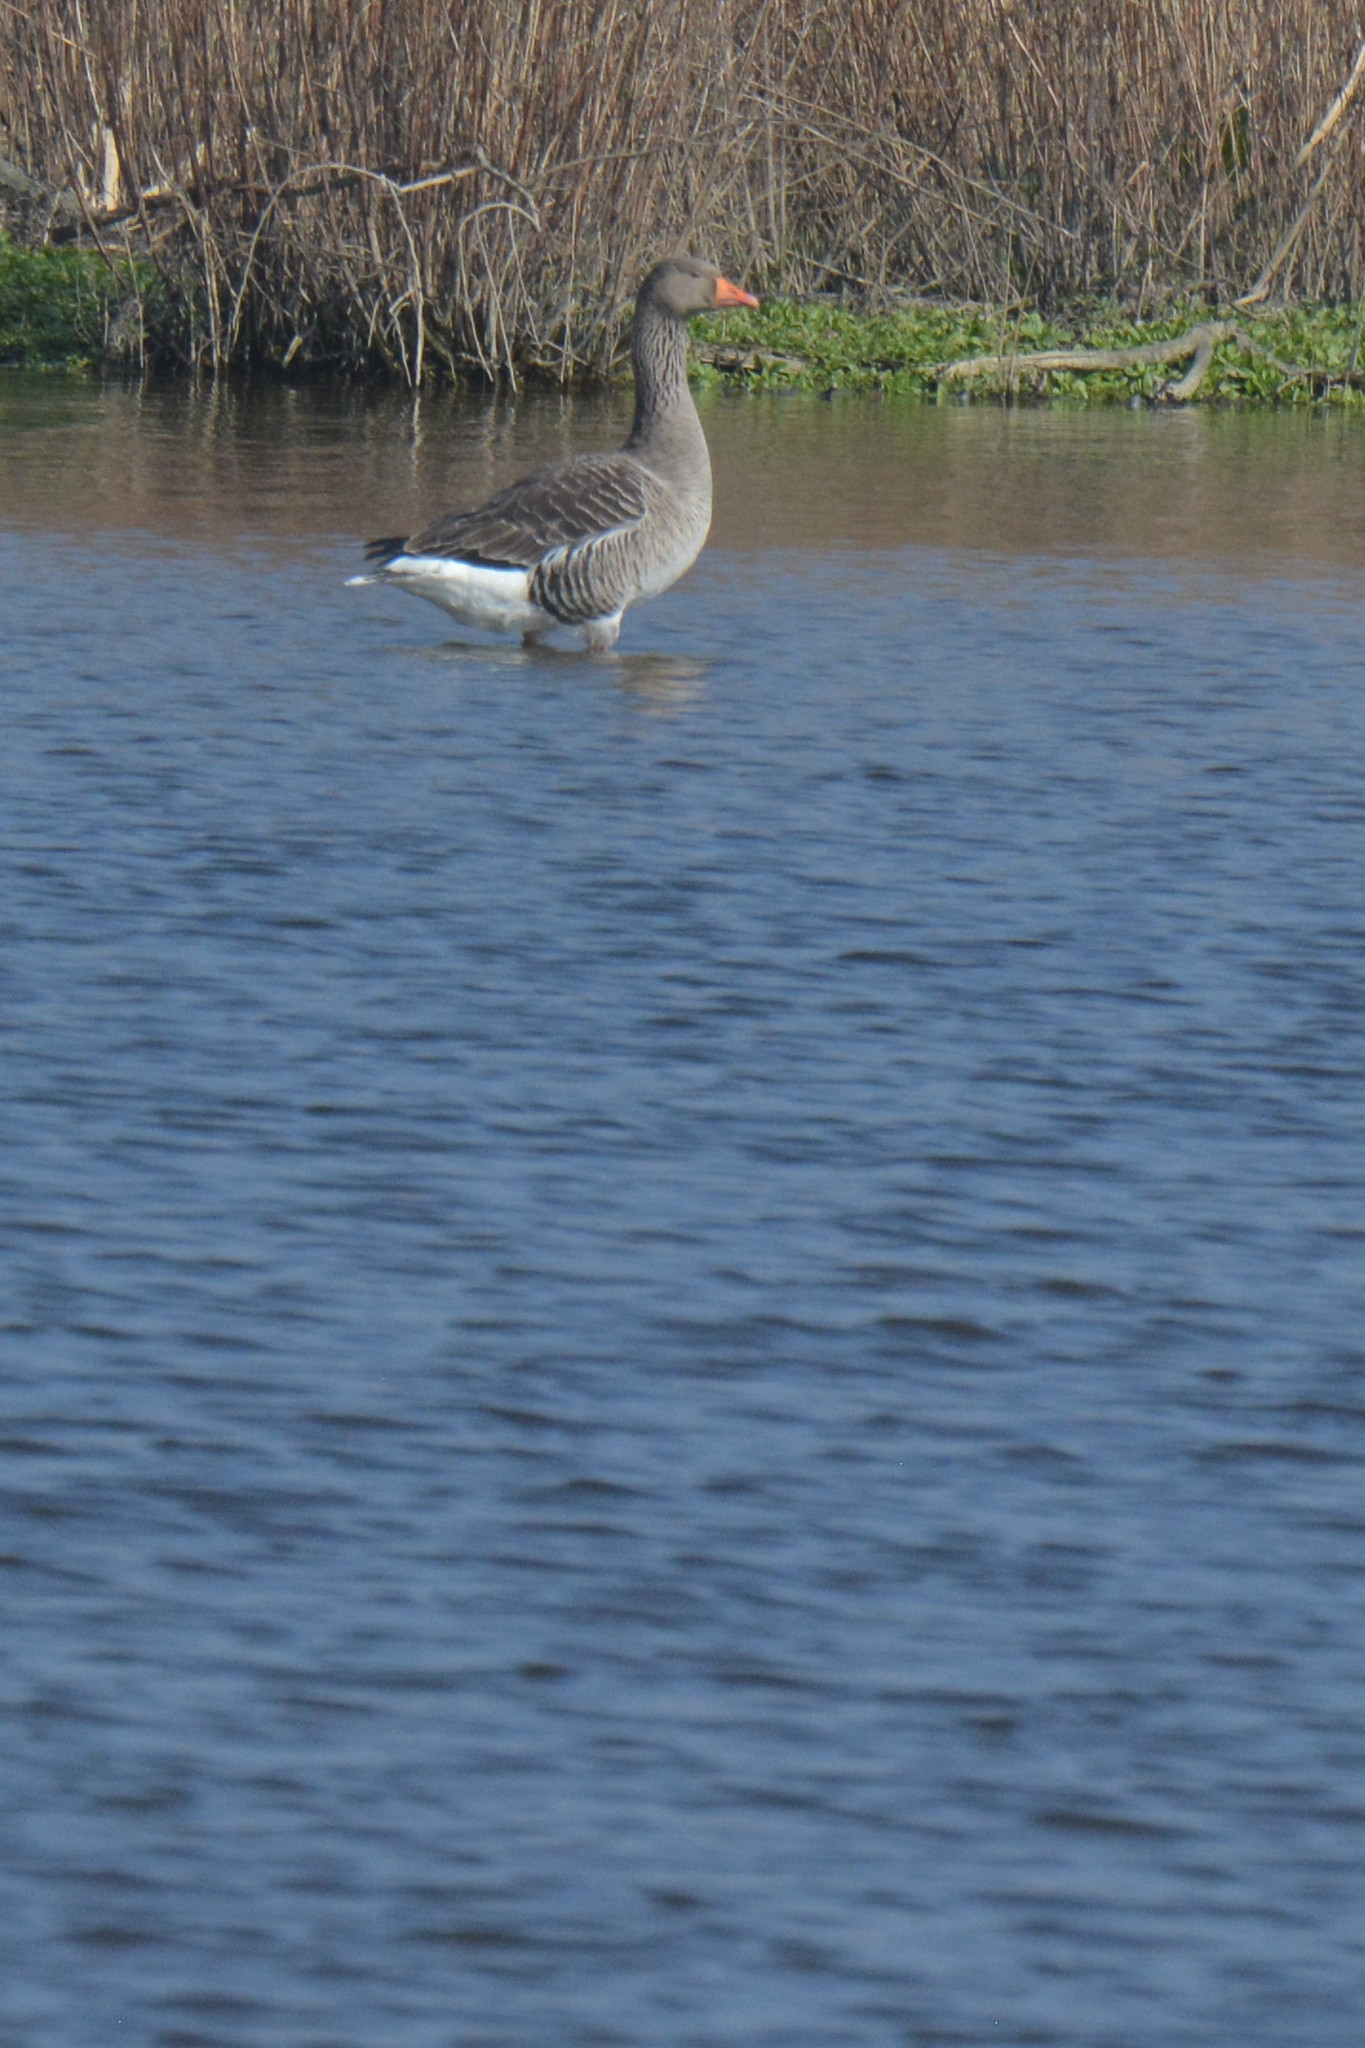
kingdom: Animalia
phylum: Chordata
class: Aves
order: Anseriformes
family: Anatidae
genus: Anser
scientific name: Anser anser
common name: Greylag goose
